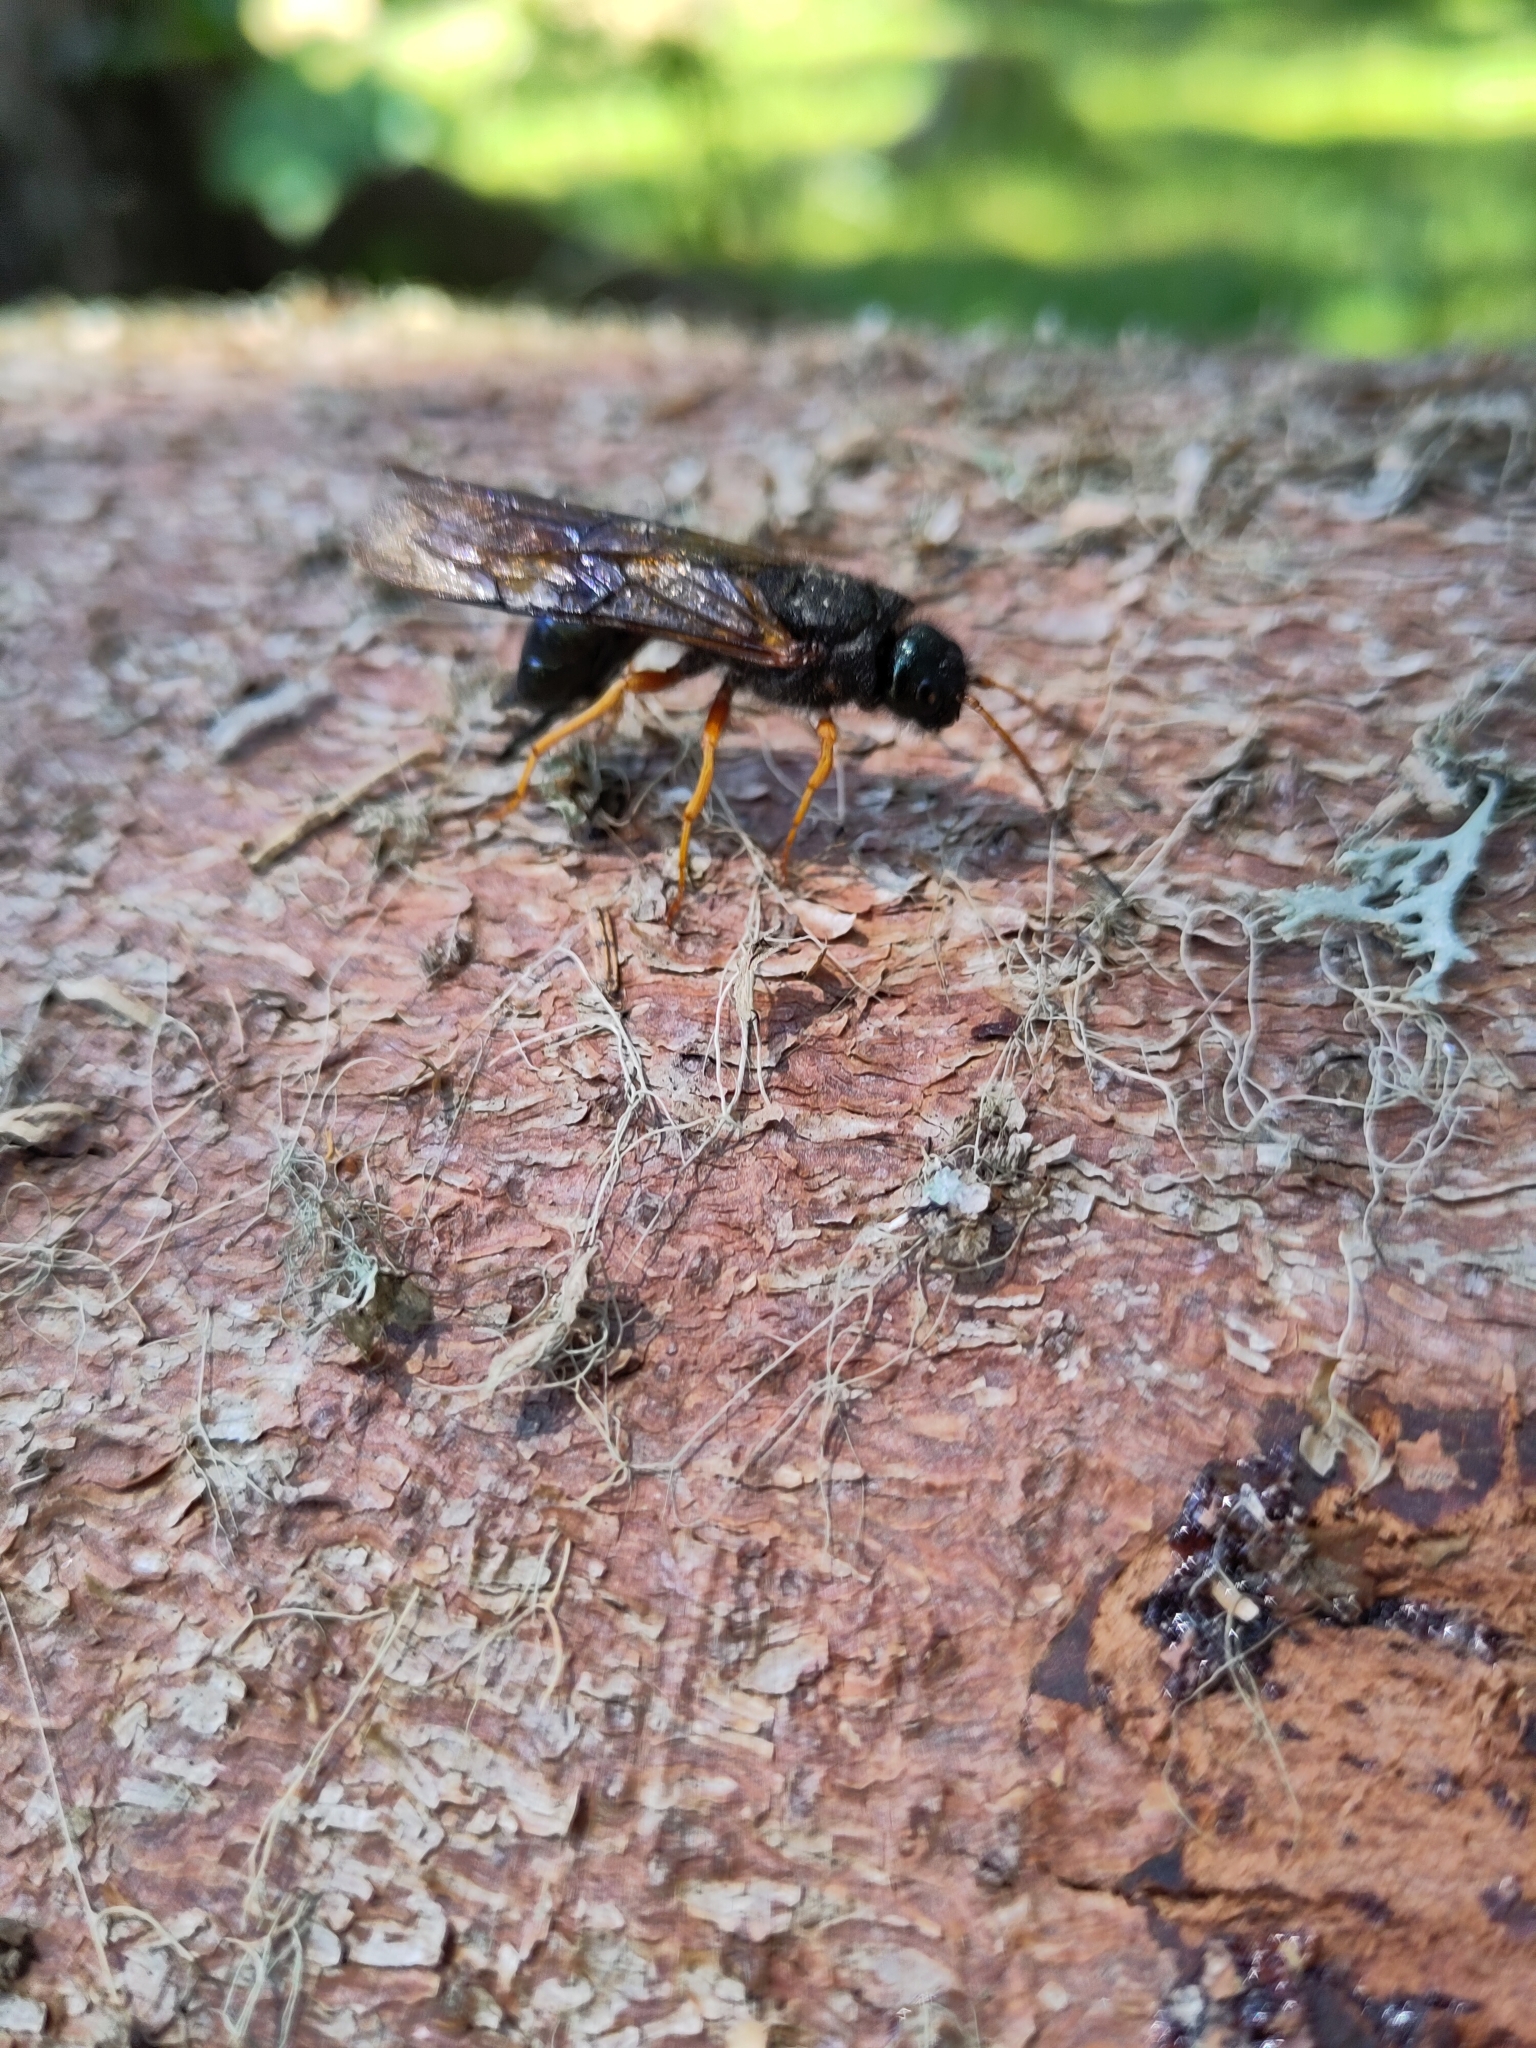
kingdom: Animalia
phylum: Arthropoda
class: Insecta
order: Hymenoptera
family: Siricidae
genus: Sirex
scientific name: Sirex juvencus
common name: Blue horntail
